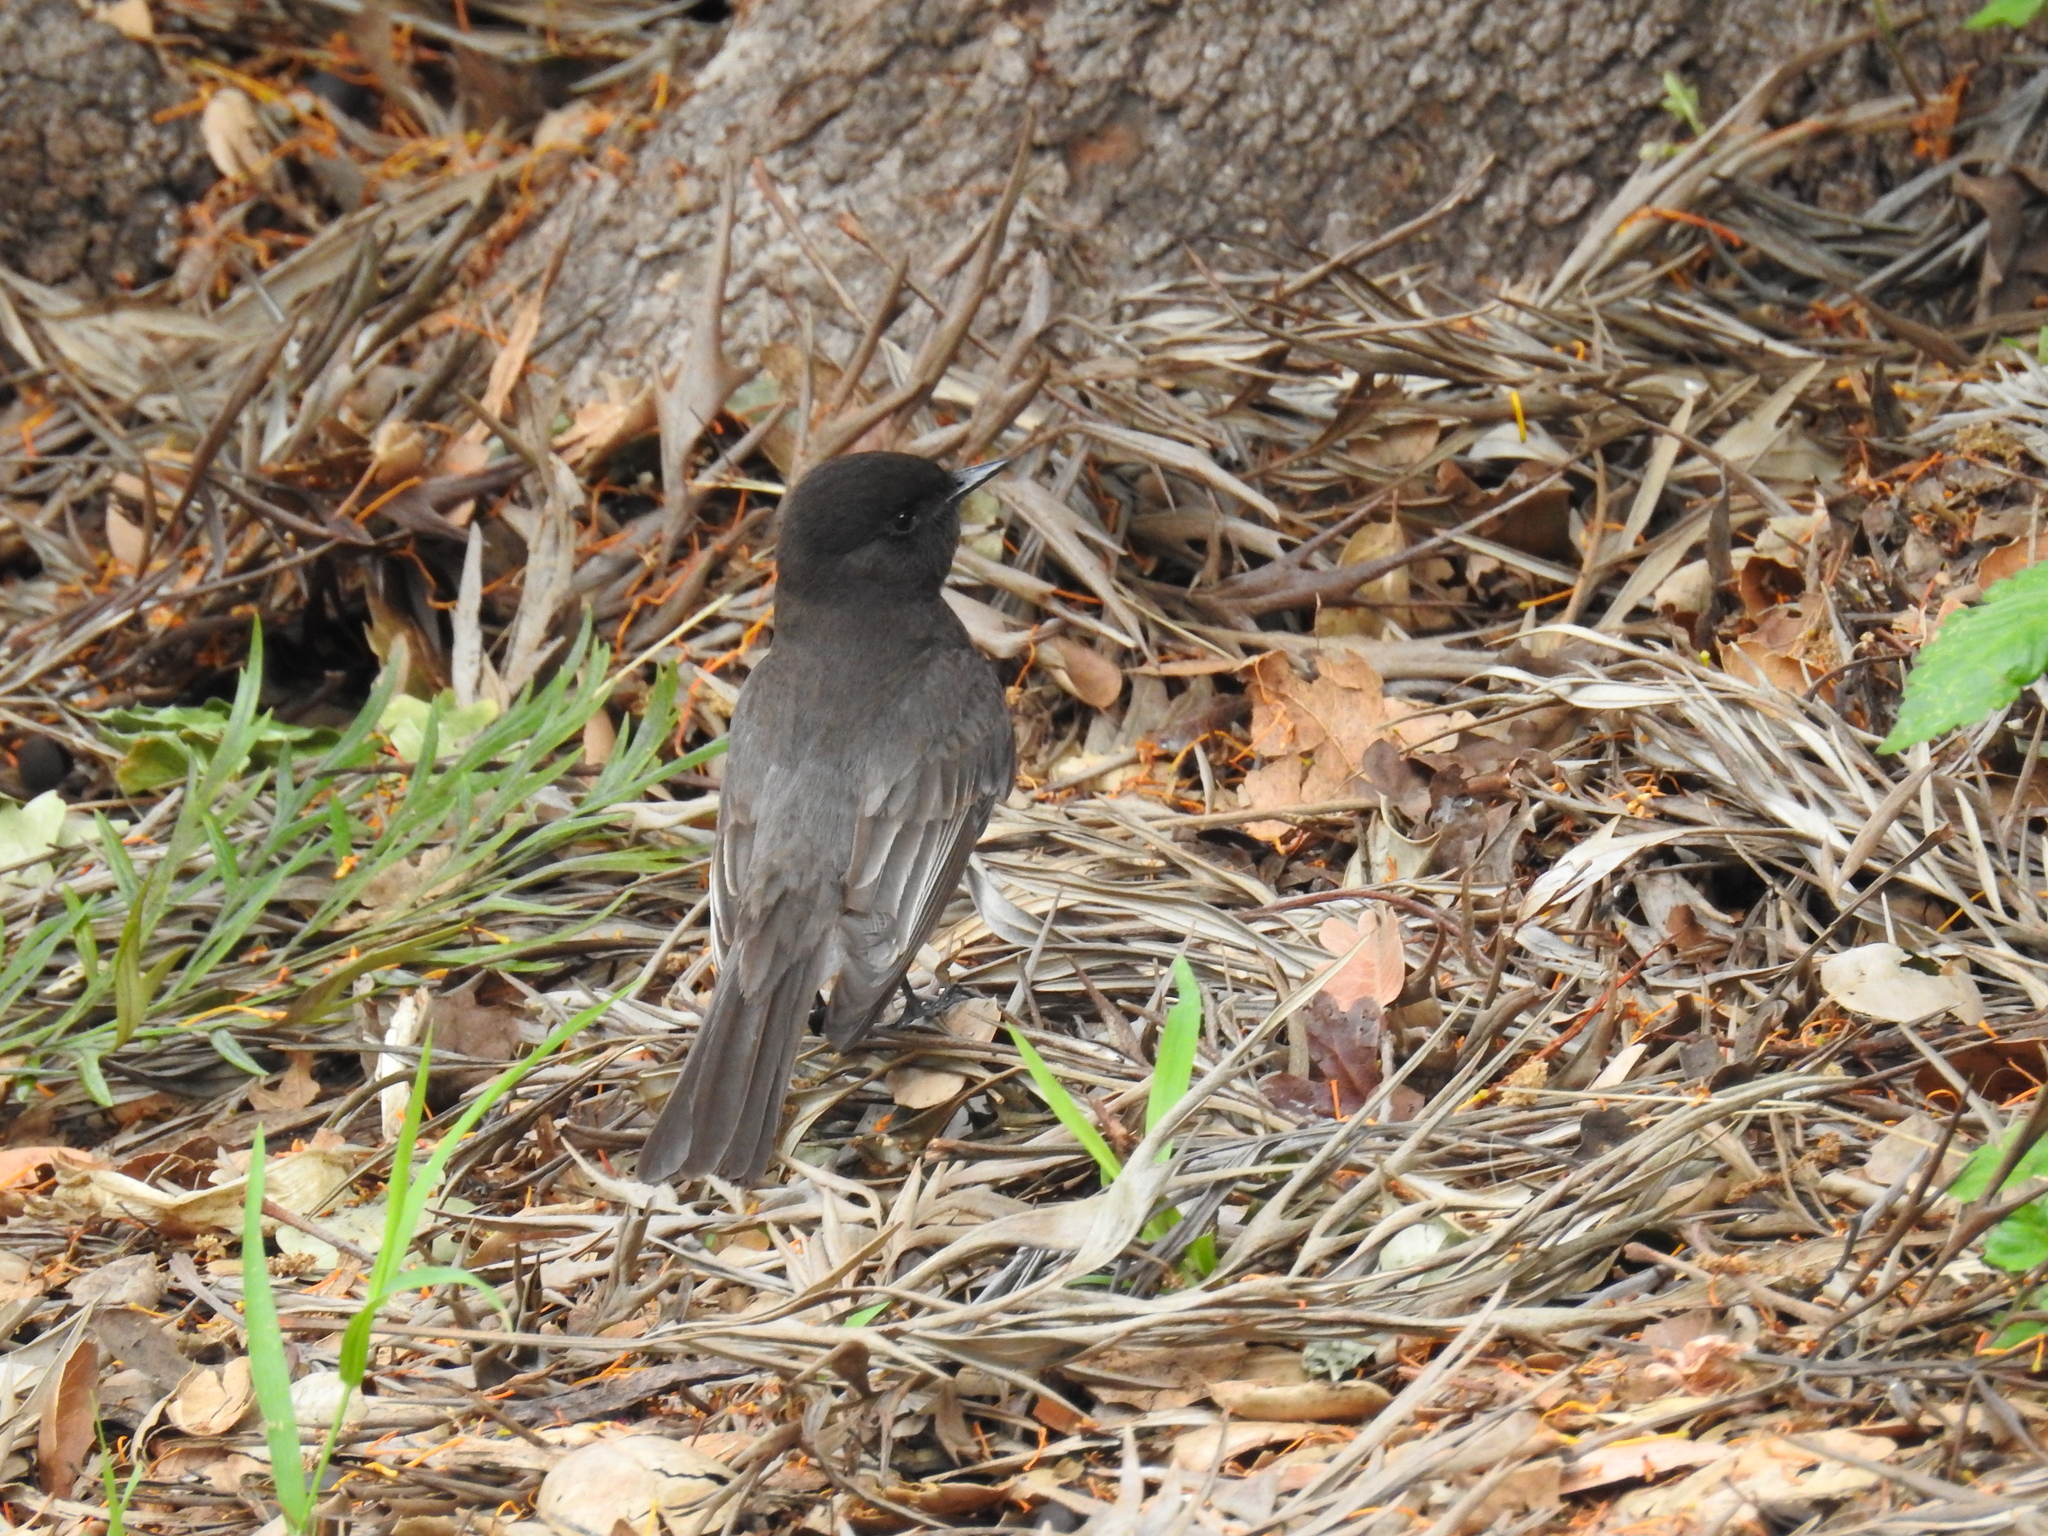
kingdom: Animalia
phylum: Chordata
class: Aves
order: Passeriformes
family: Tyrannidae
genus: Sayornis
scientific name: Sayornis nigricans
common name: Black phoebe
